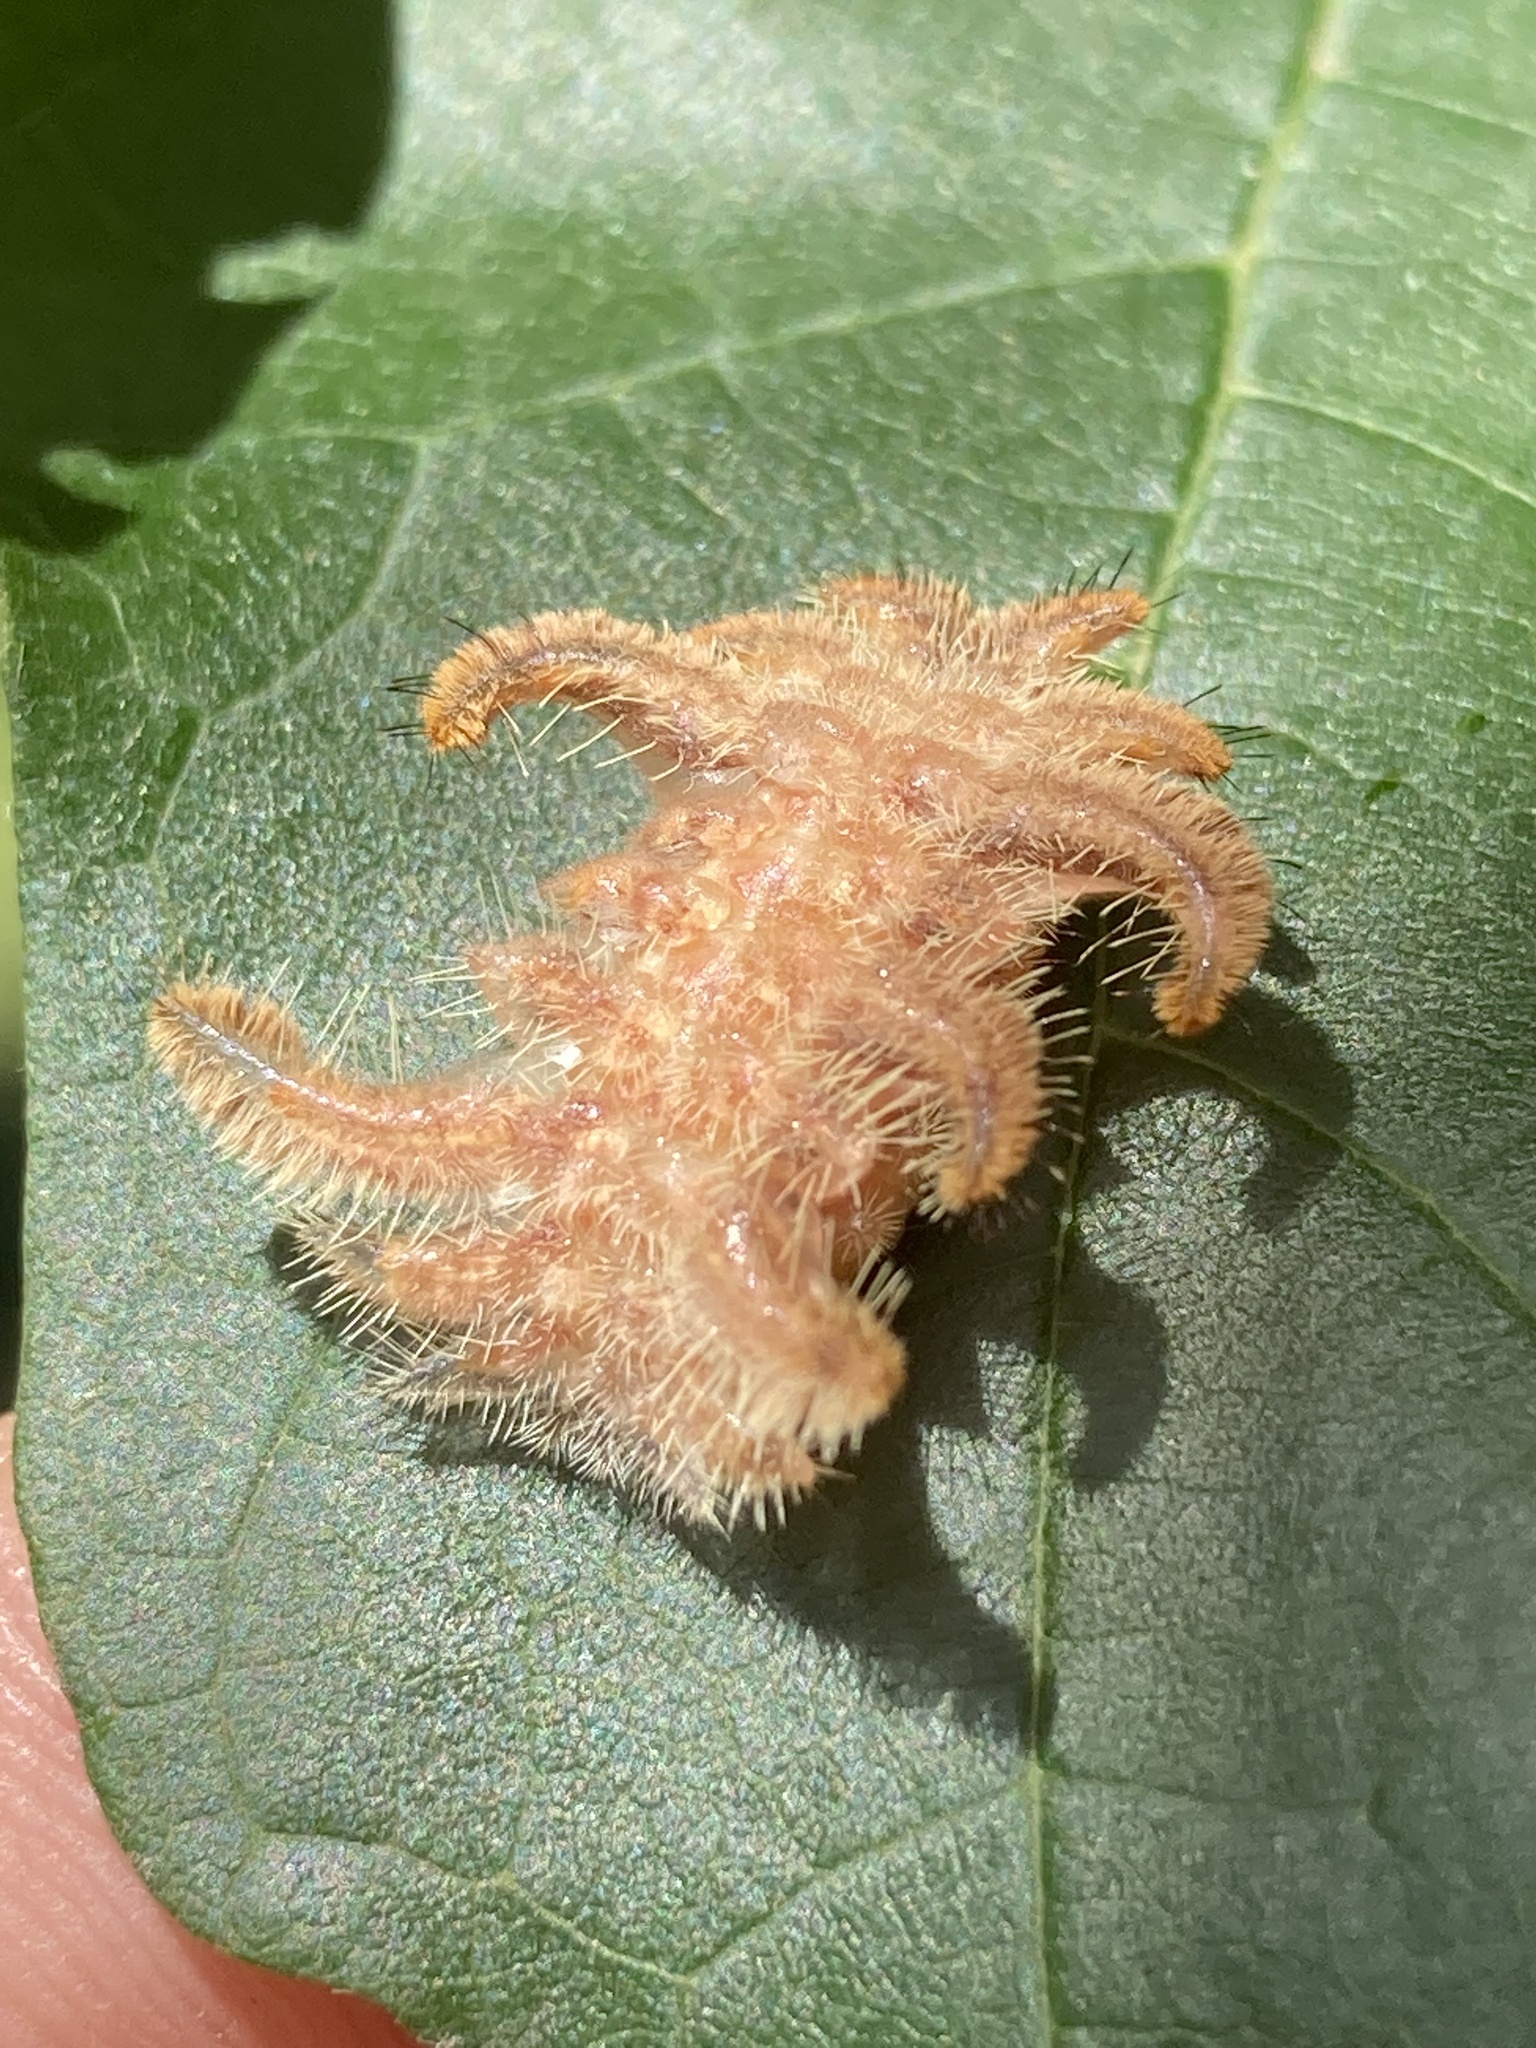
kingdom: Animalia
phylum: Arthropoda
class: Insecta
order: Lepidoptera
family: Limacodidae
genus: Phobetron
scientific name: Phobetron pithecium
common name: Hag moth
